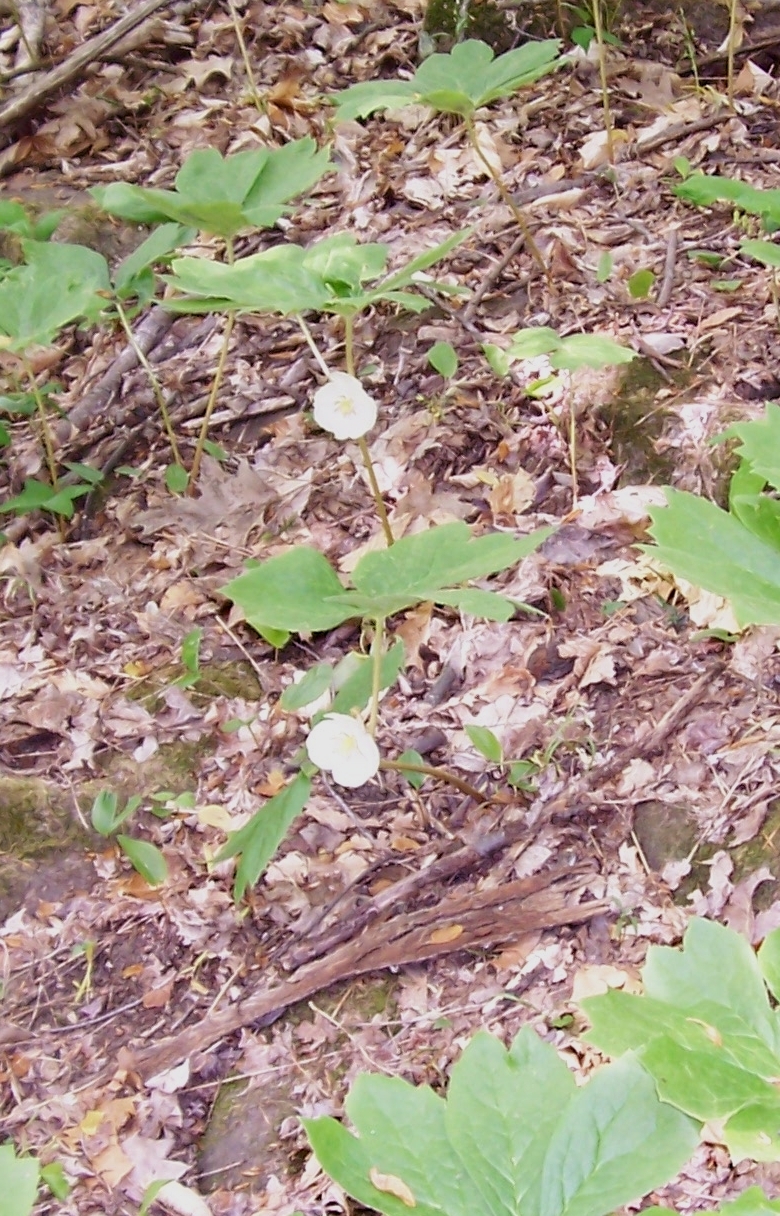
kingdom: Plantae
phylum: Tracheophyta
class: Magnoliopsida
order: Ranunculales
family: Berberidaceae
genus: Podophyllum
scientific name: Podophyllum peltatum
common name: Wild mandrake
